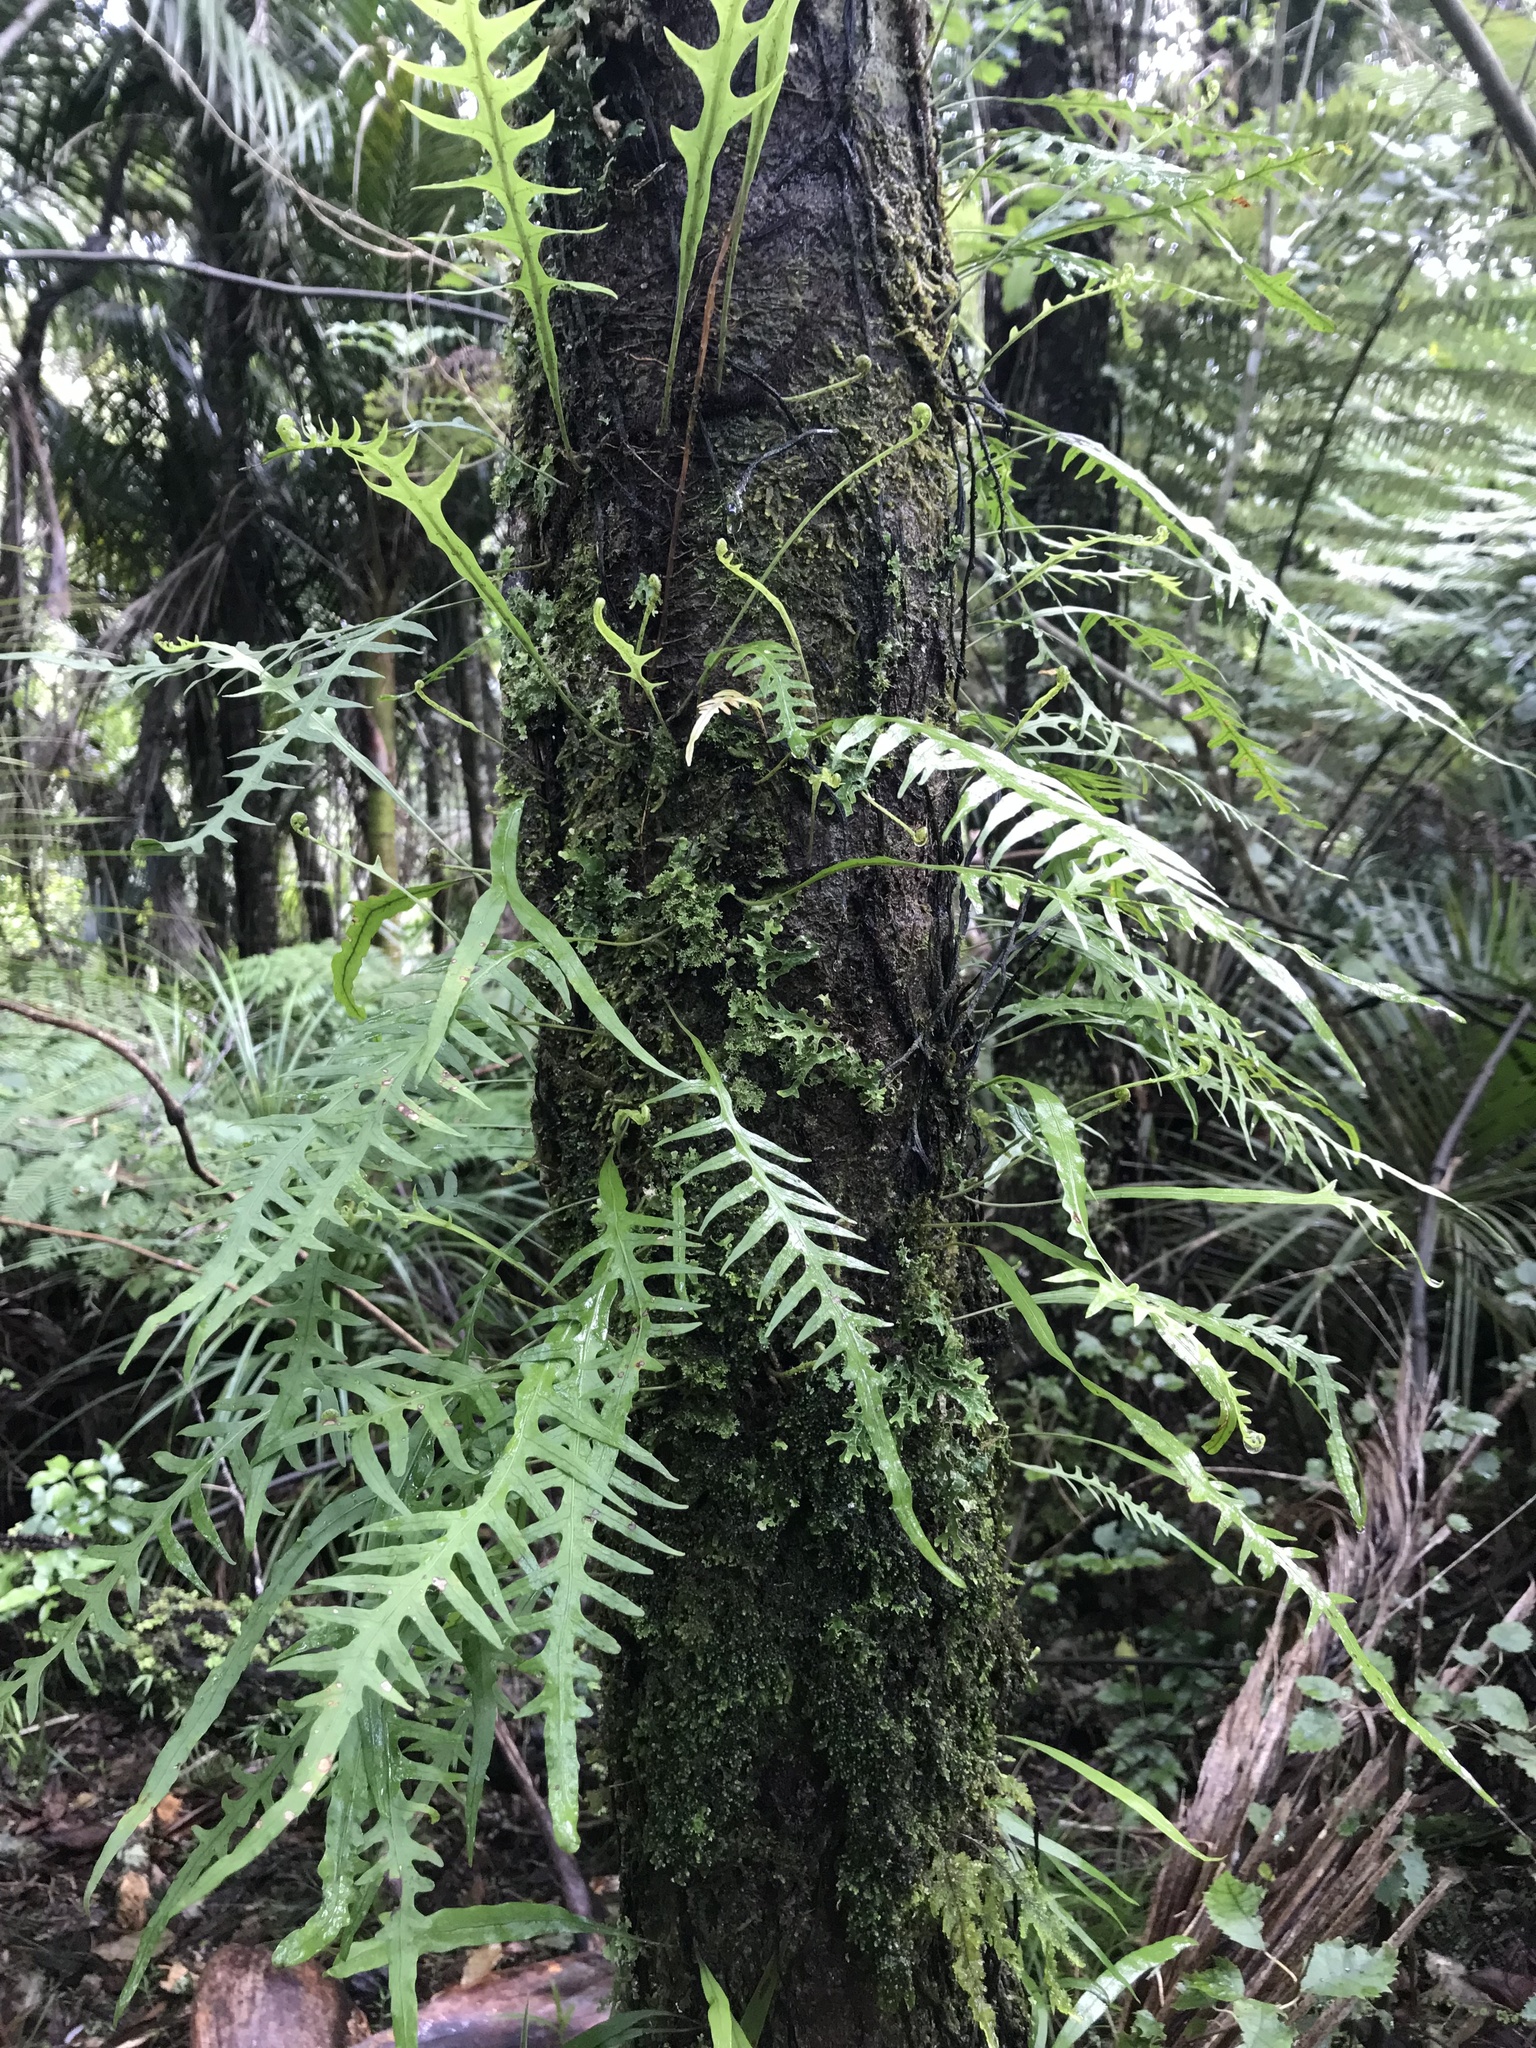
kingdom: Plantae
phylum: Tracheophyta
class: Polypodiopsida
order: Polypodiales
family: Polypodiaceae
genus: Lecanopteris
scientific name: Lecanopteris scandens
